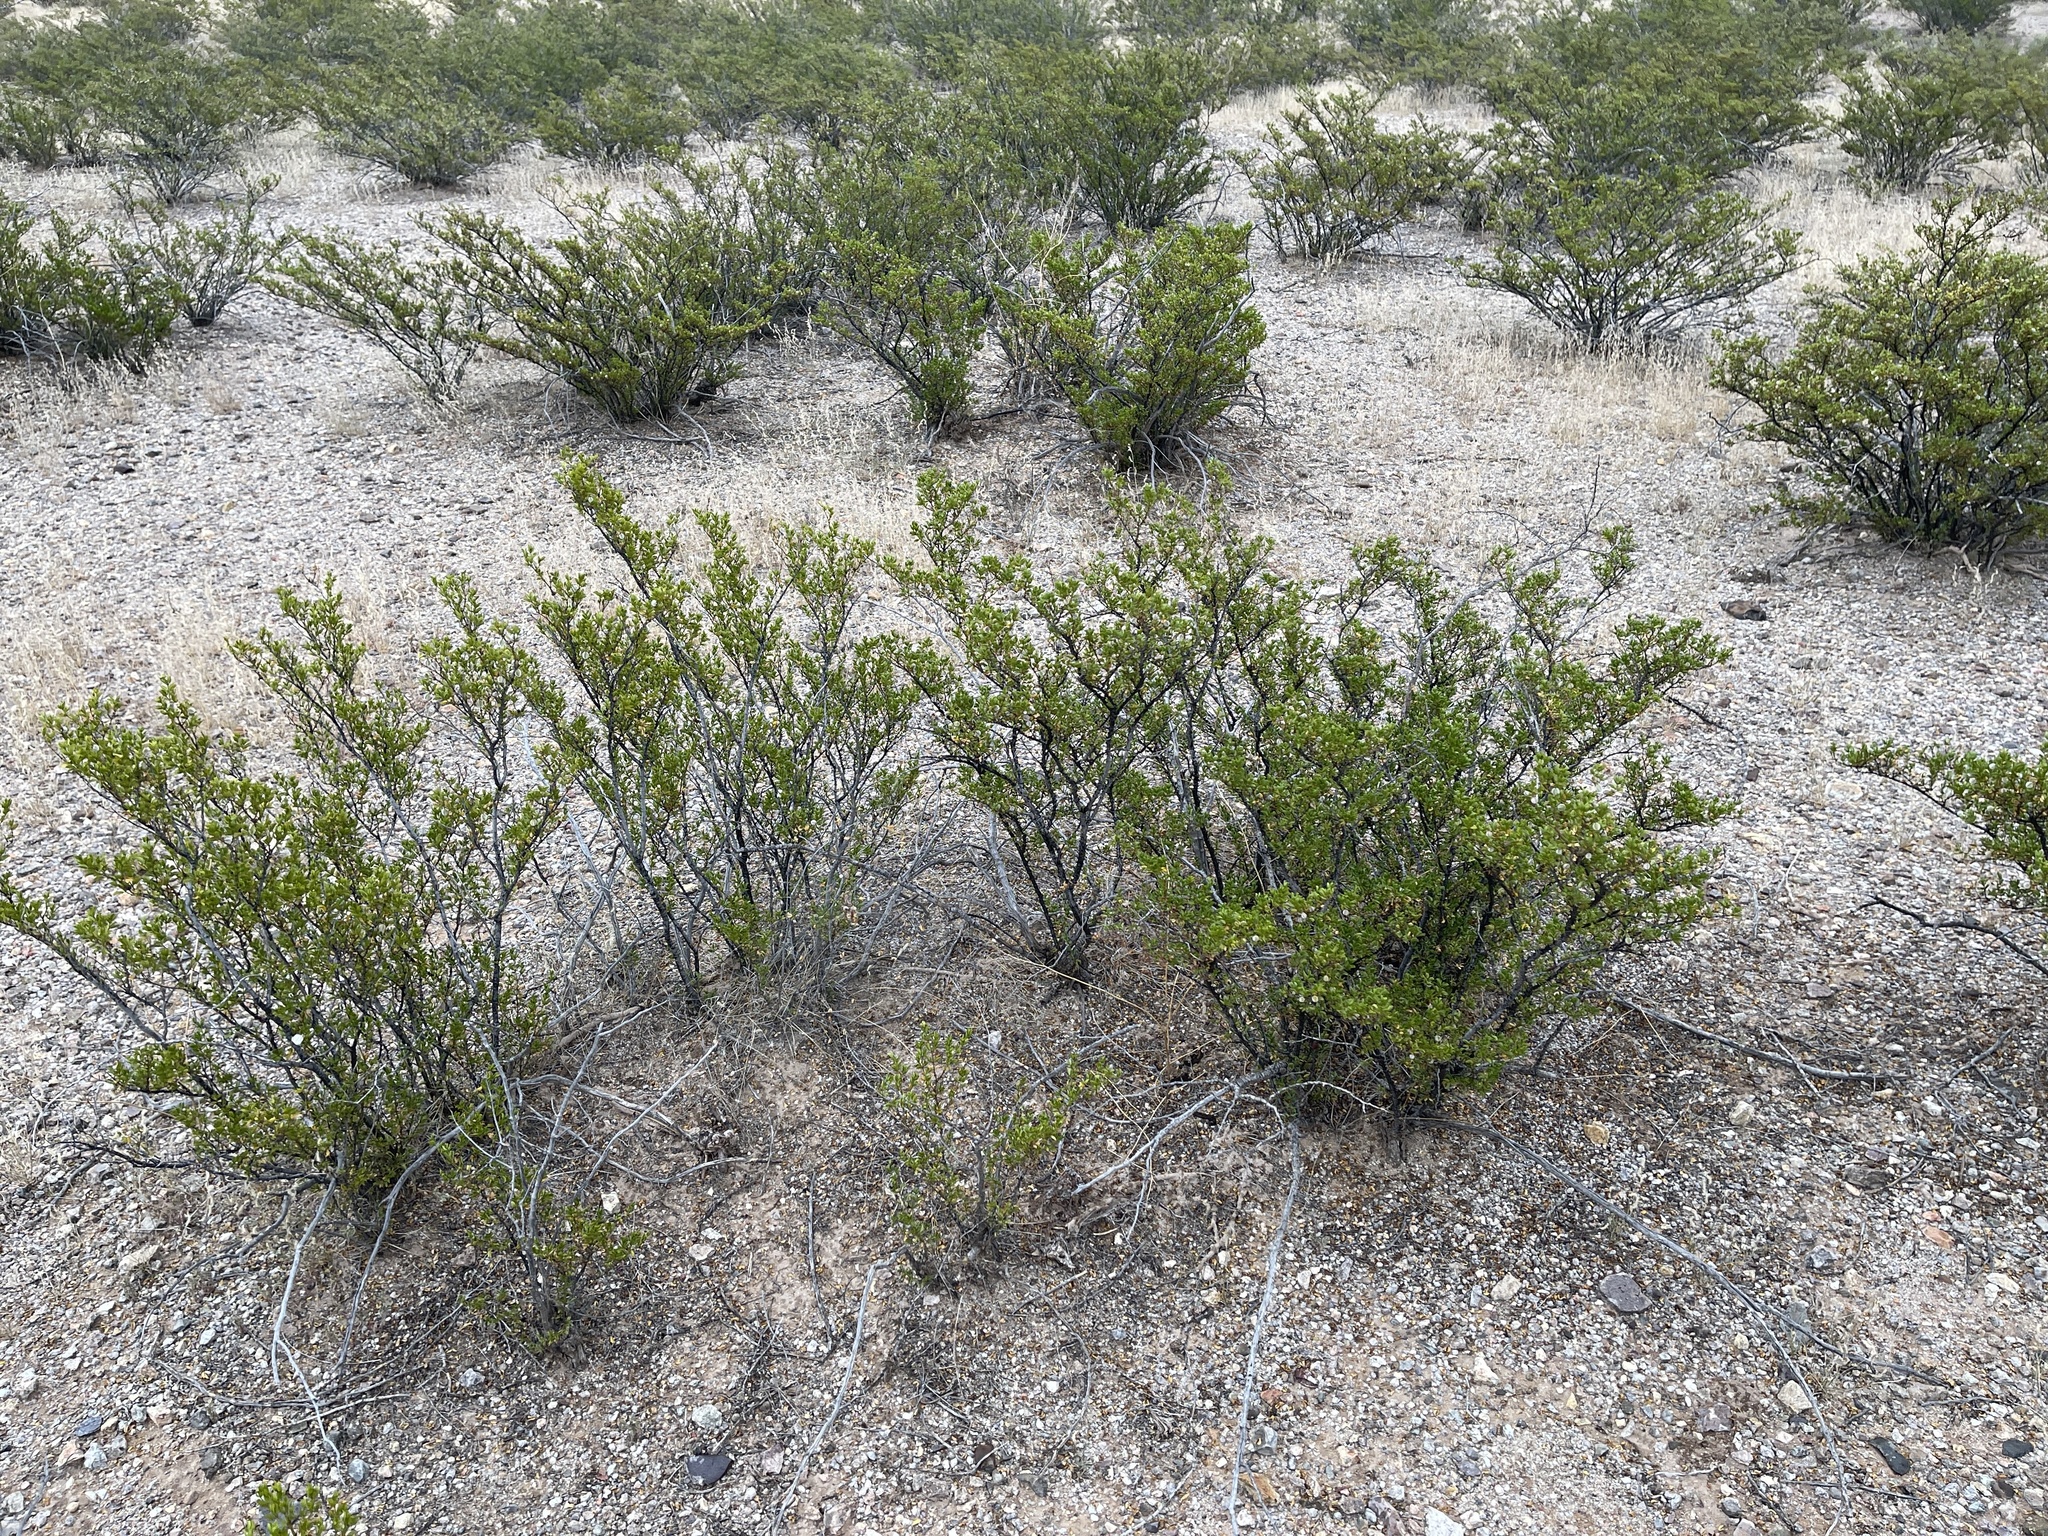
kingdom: Plantae
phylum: Tracheophyta
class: Magnoliopsida
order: Zygophyllales
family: Zygophyllaceae
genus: Larrea
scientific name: Larrea tridentata
